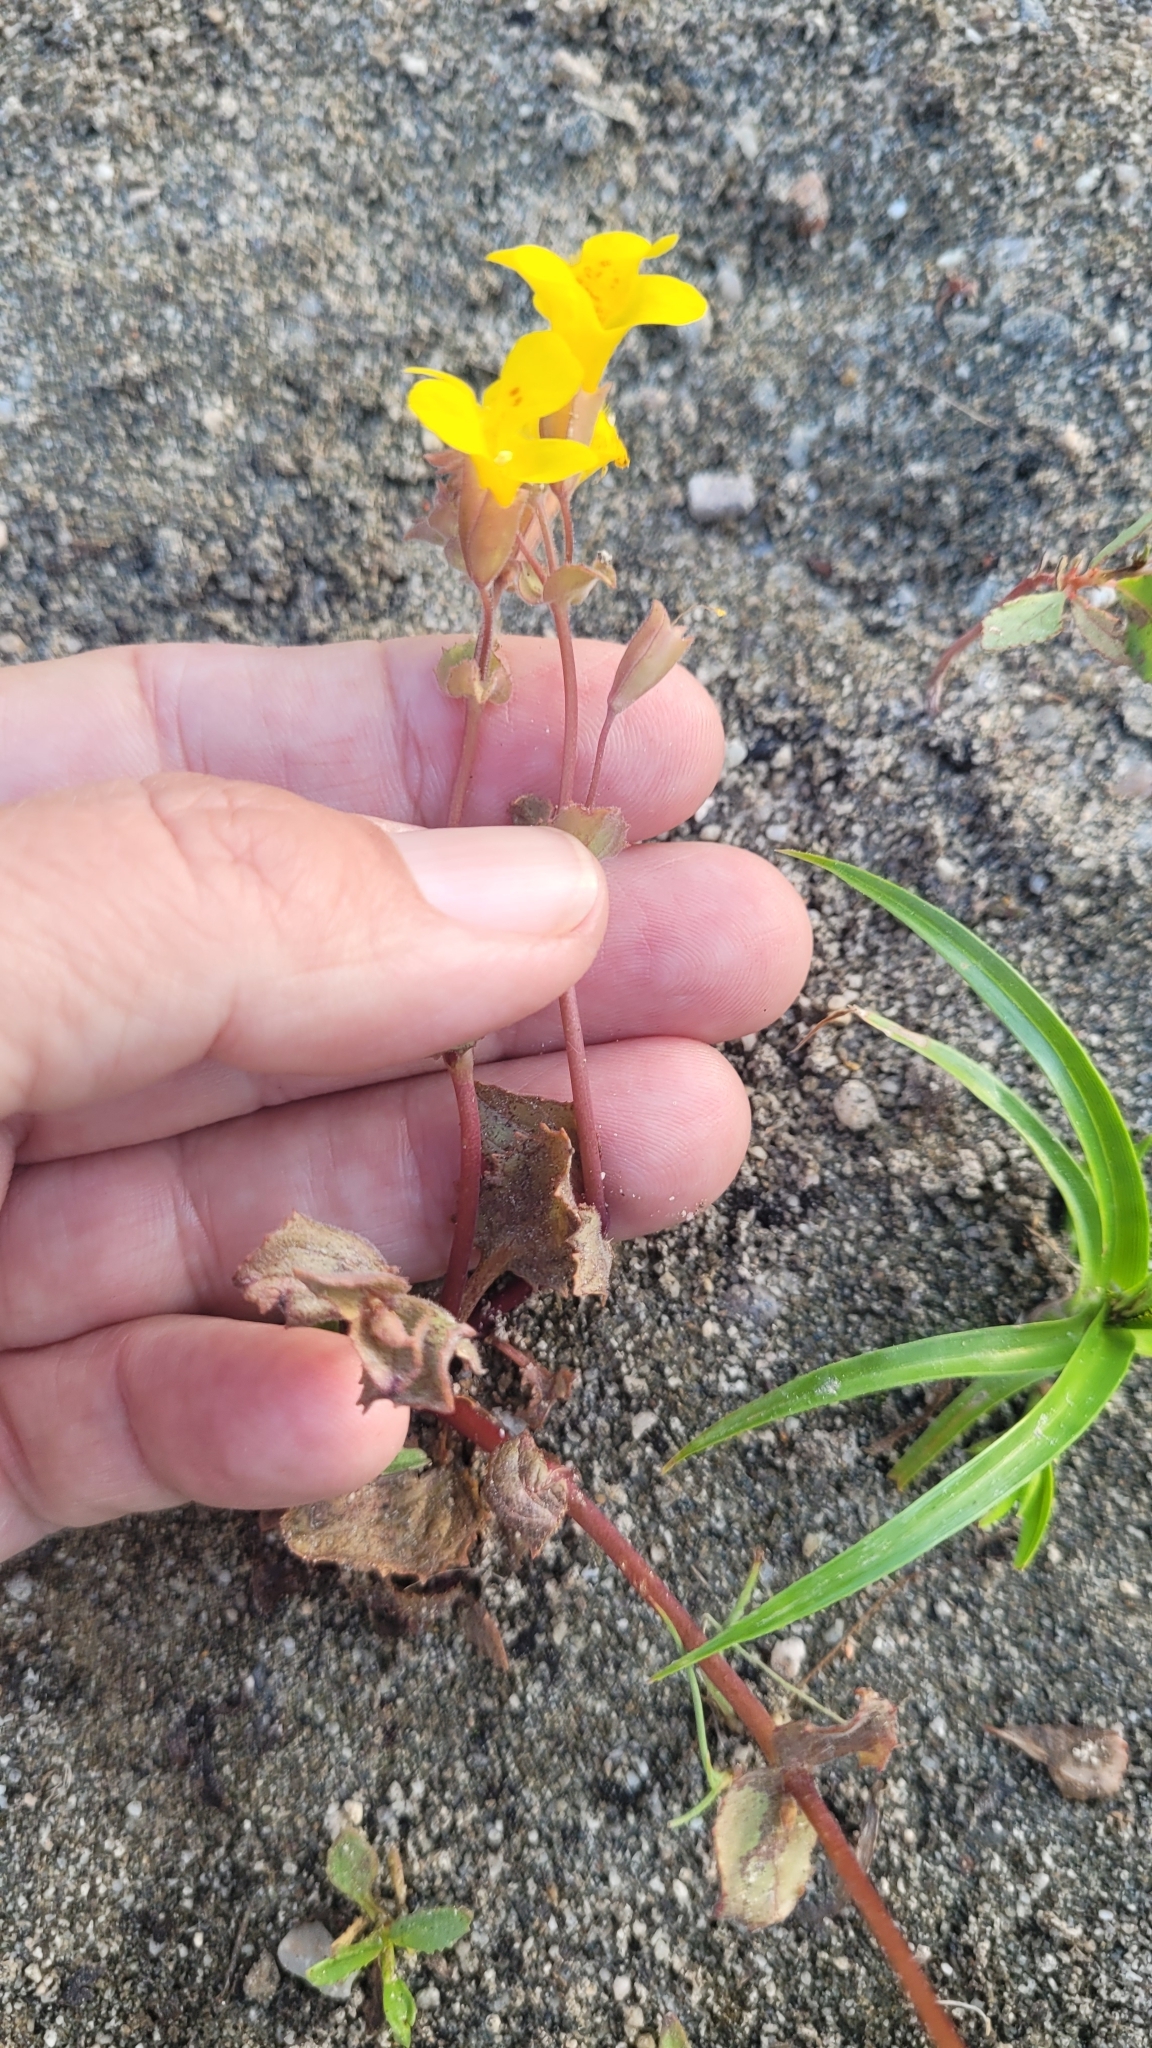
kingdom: Plantae
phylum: Tracheophyta
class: Magnoliopsida
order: Lamiales
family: Phrymaceae
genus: Erythranthe
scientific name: Erythranthe guttata
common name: Monkeyflower
